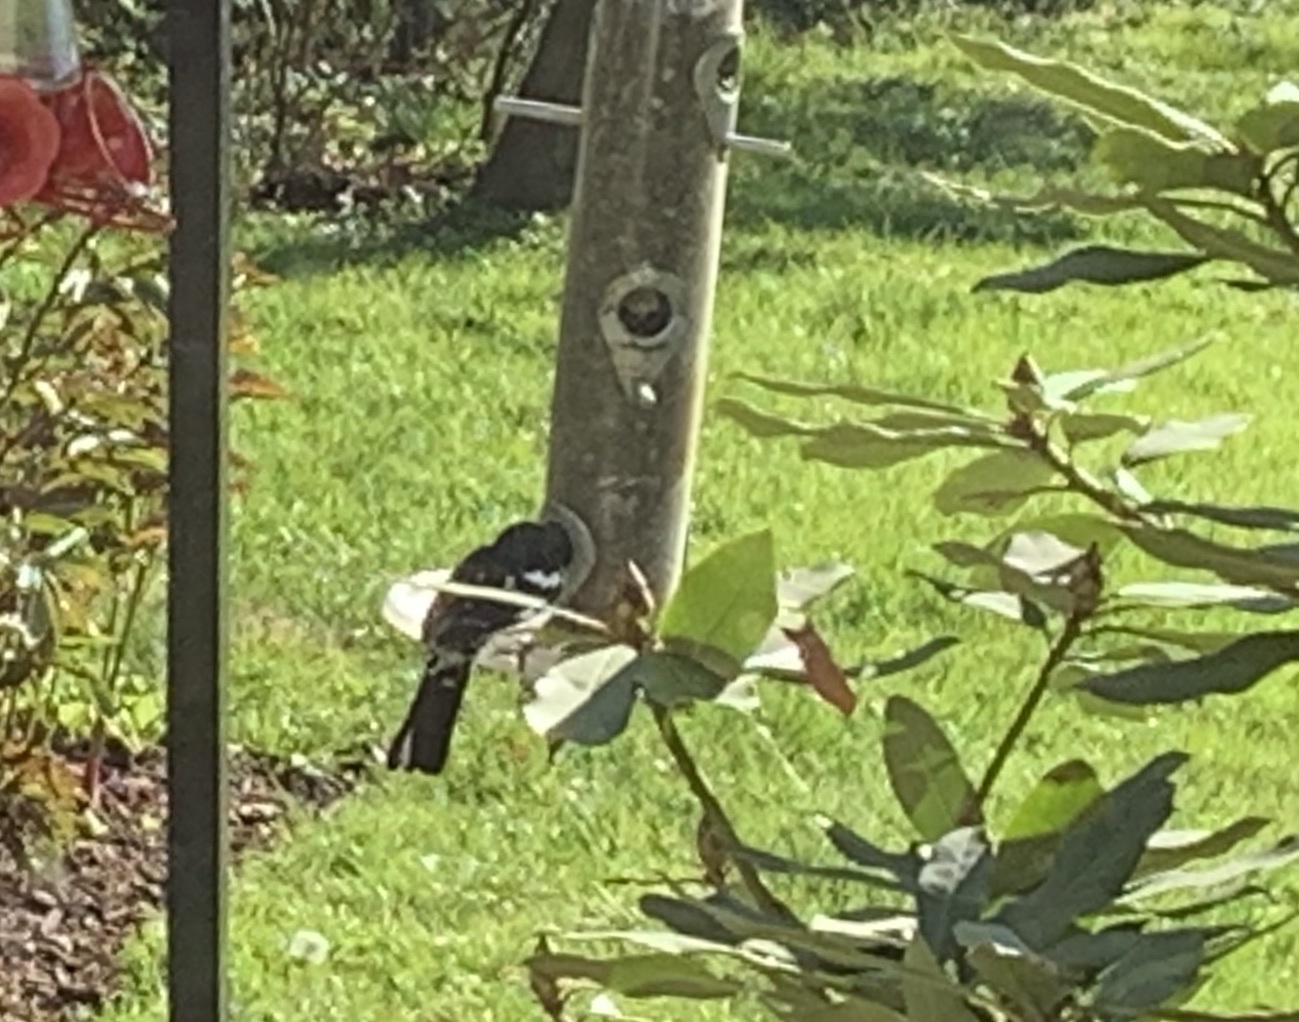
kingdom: Animalia
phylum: Chordata
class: Aves
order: Passeriformes
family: Cardinalidae
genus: Pheucticus
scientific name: Pheucticus ludovicianus
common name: Rose-breasted grosbeak
